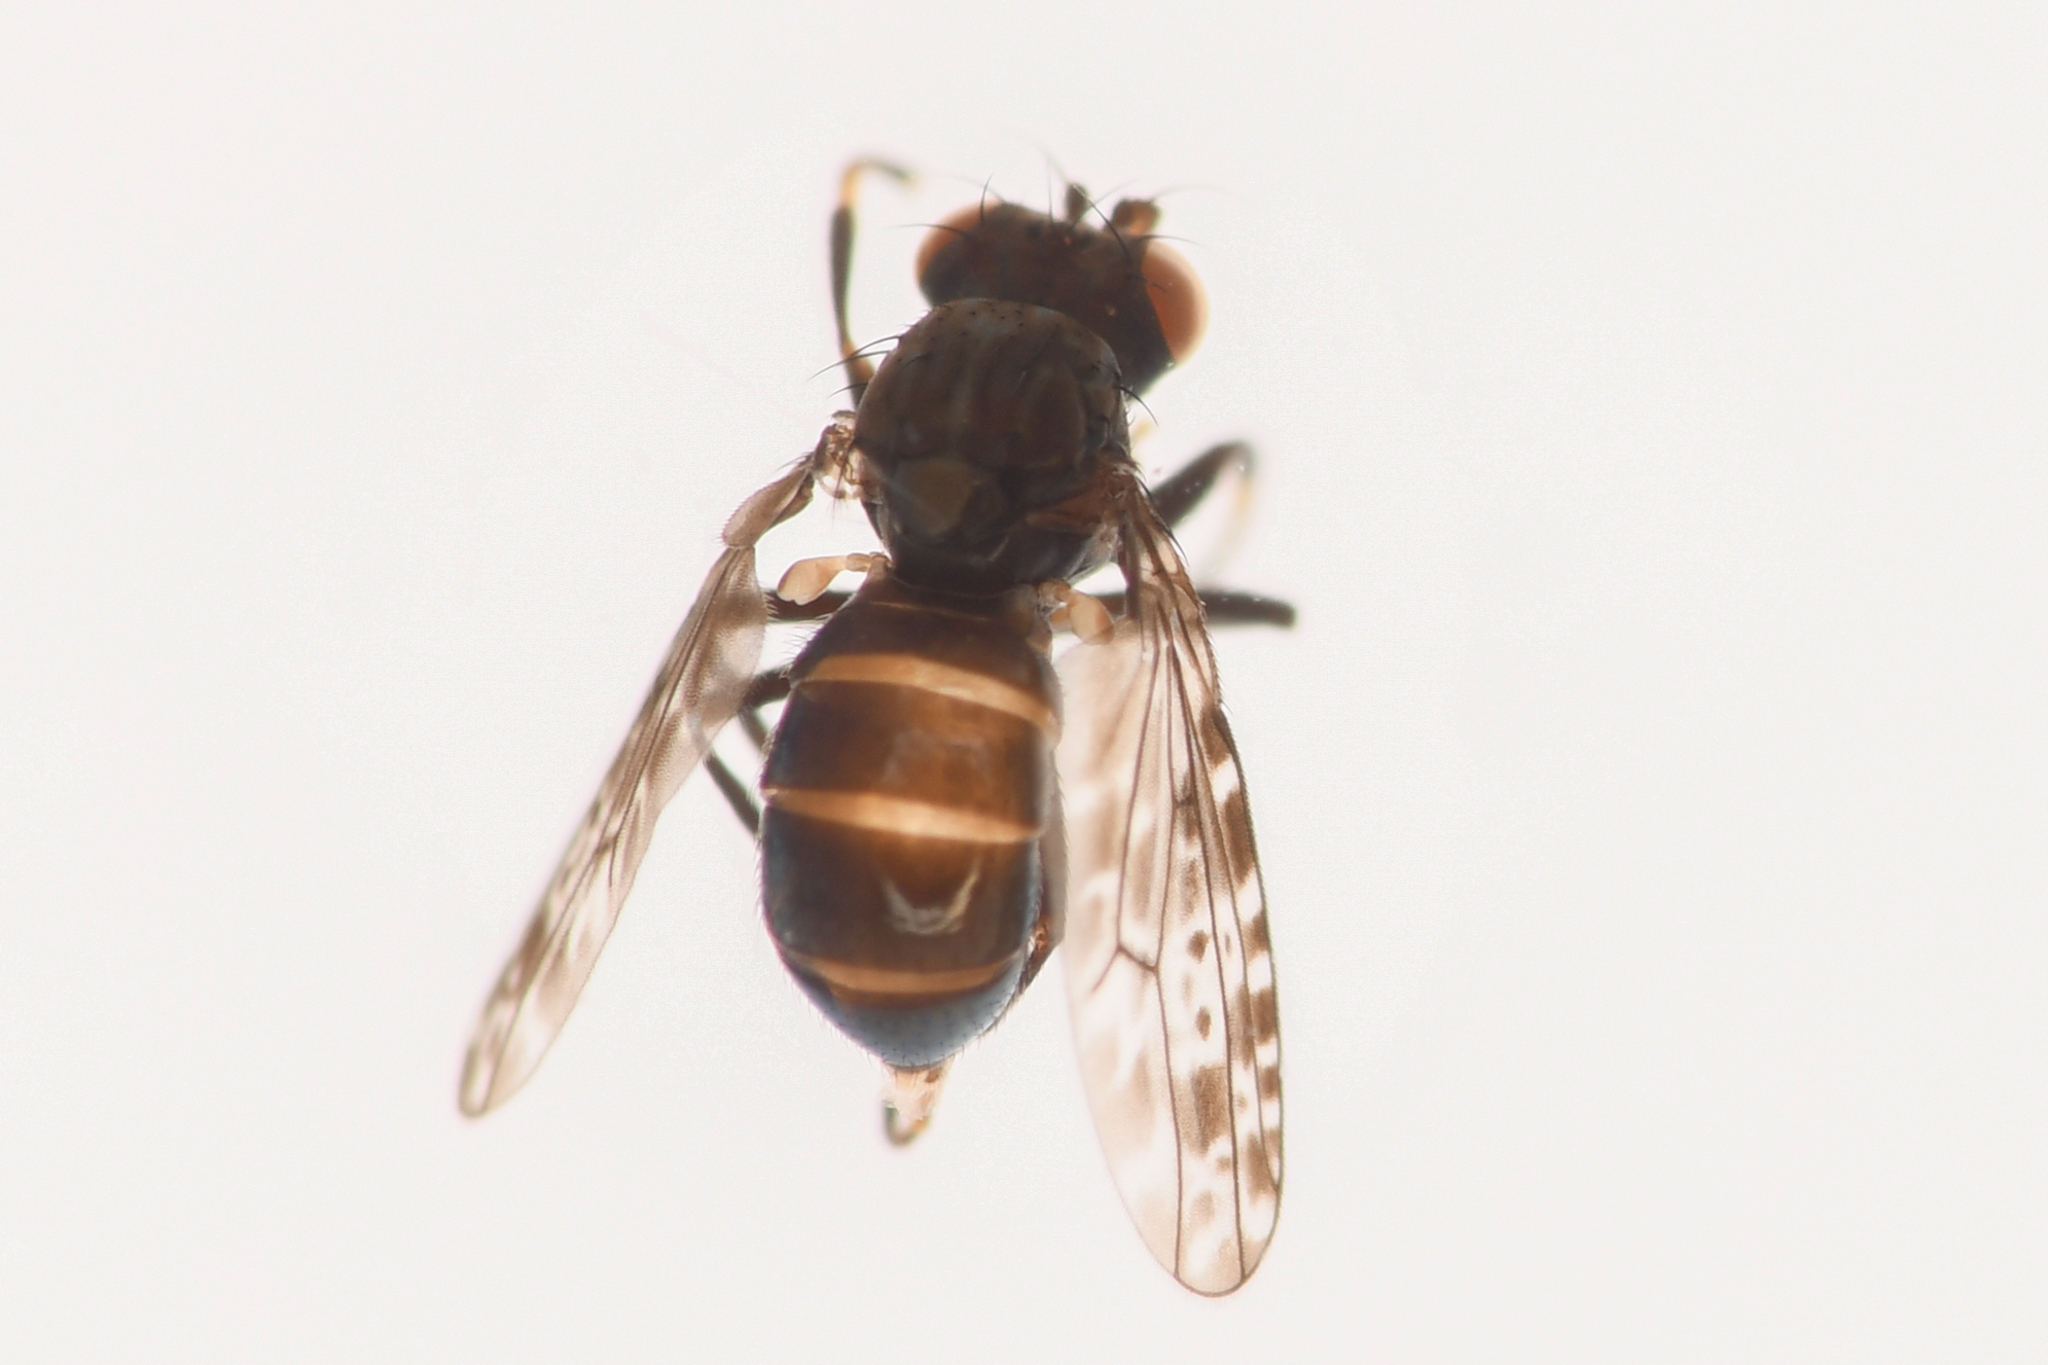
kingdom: Animalia
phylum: Arthropoda
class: Insecta
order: Diptera
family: Ephydridae
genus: Limnellia
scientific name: Limnellia balioptera
